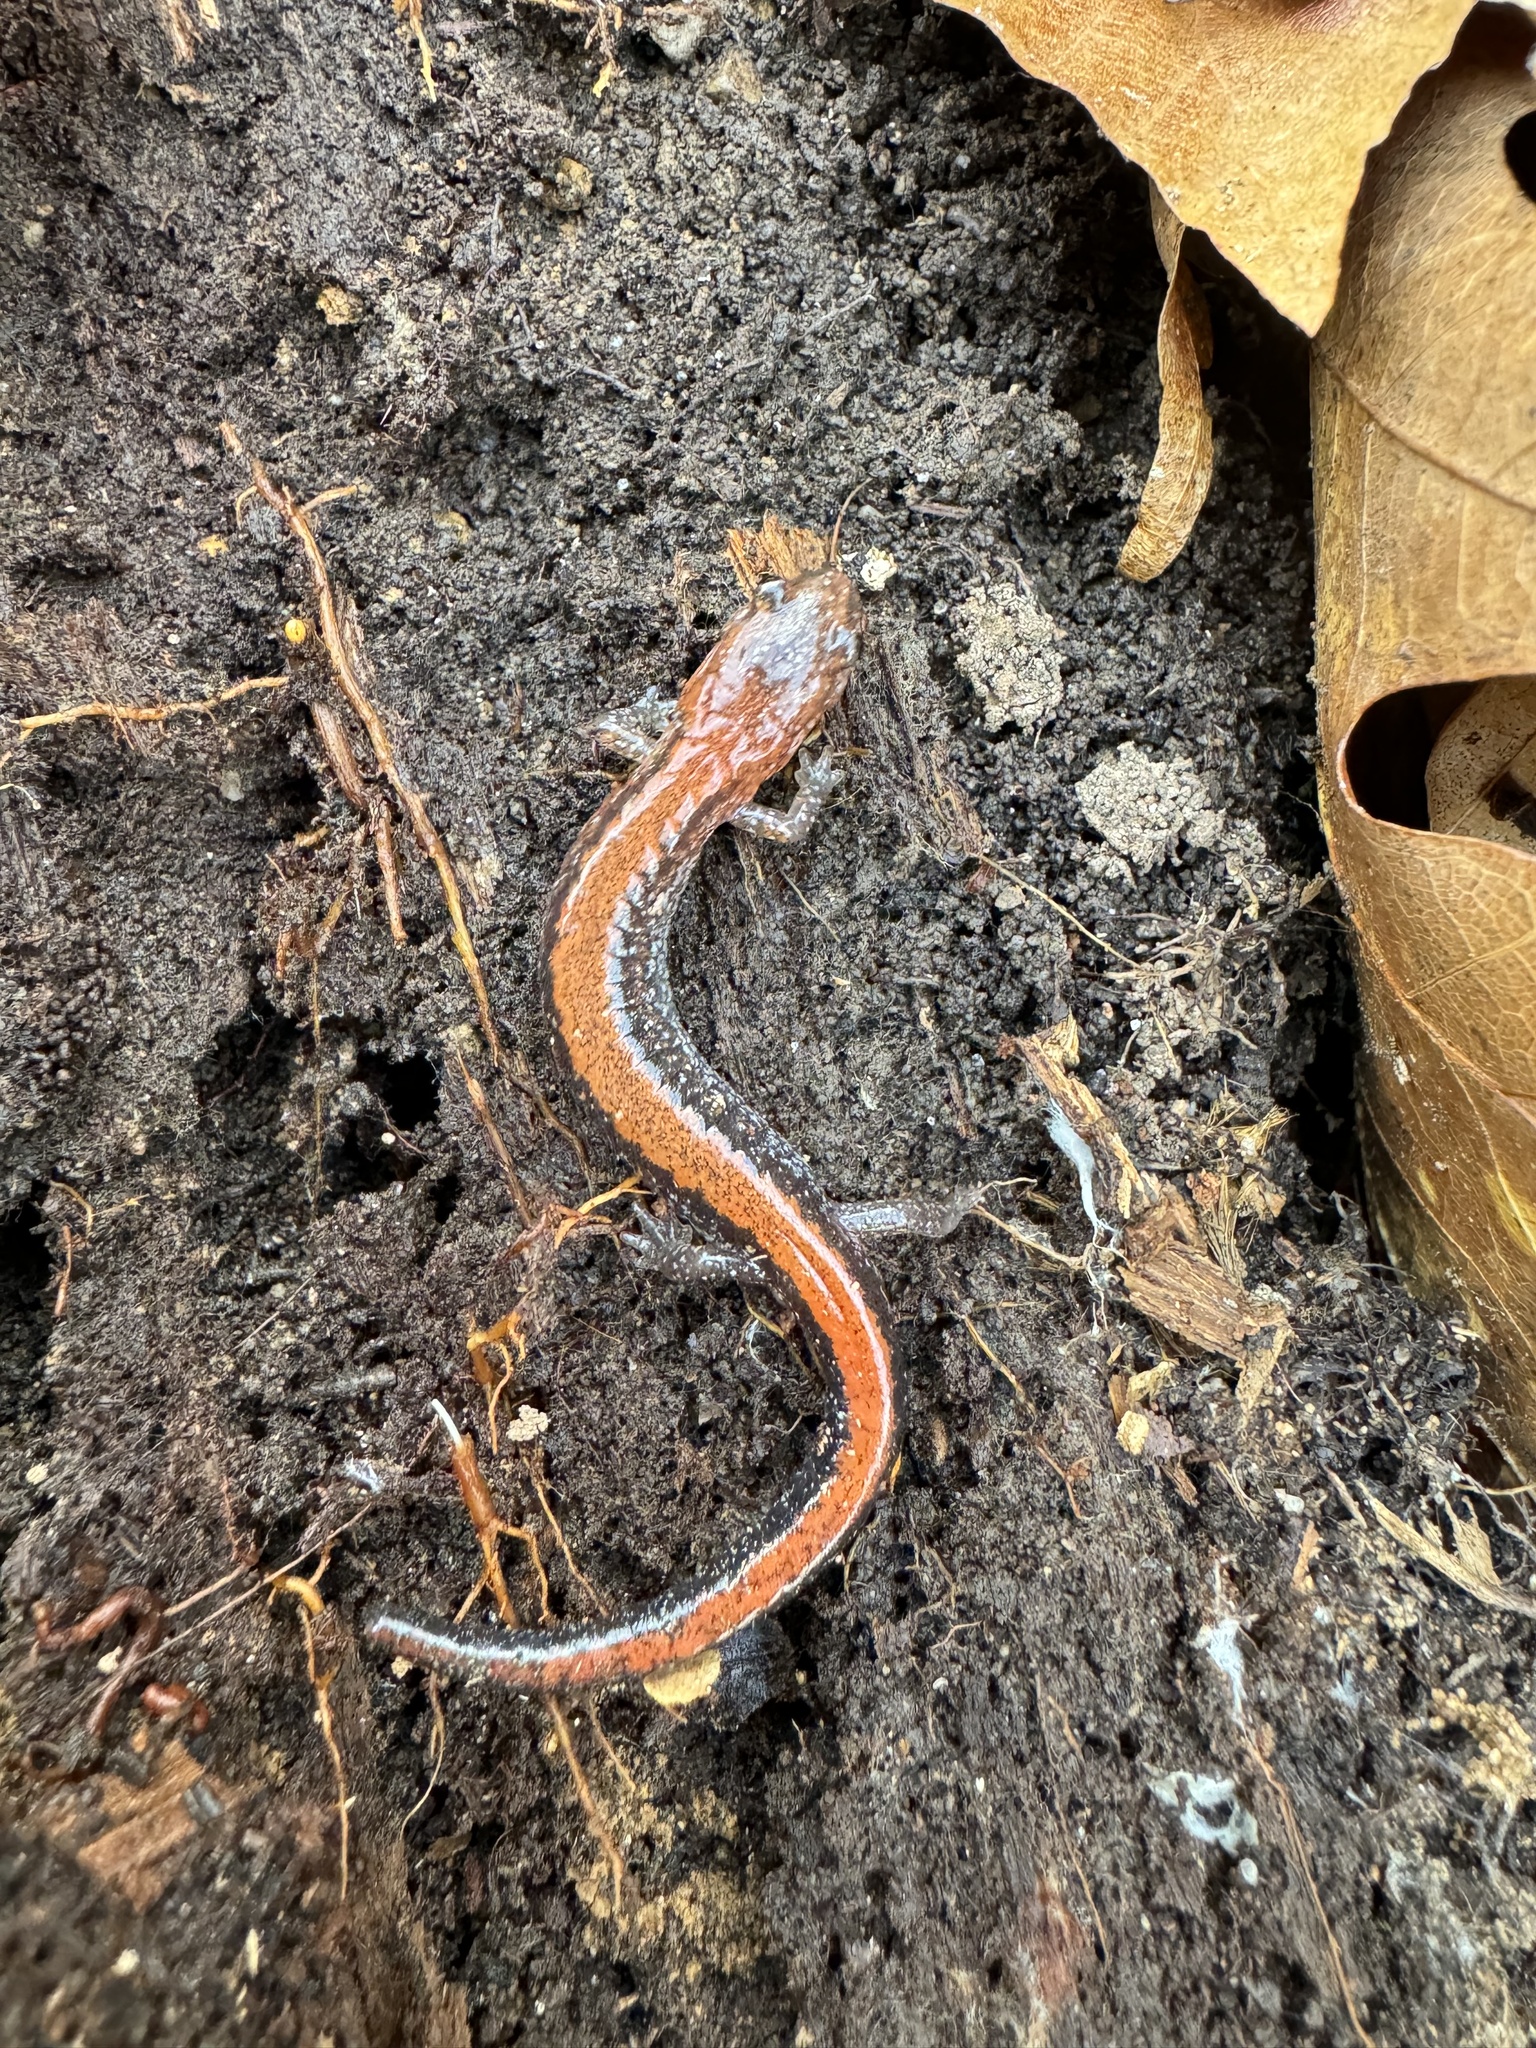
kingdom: Animalia
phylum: Chordata
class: Amphibia
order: Caudata
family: Plethodontidae
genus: Plethodon
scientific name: Plethodon cinereus
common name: Redback salamander
